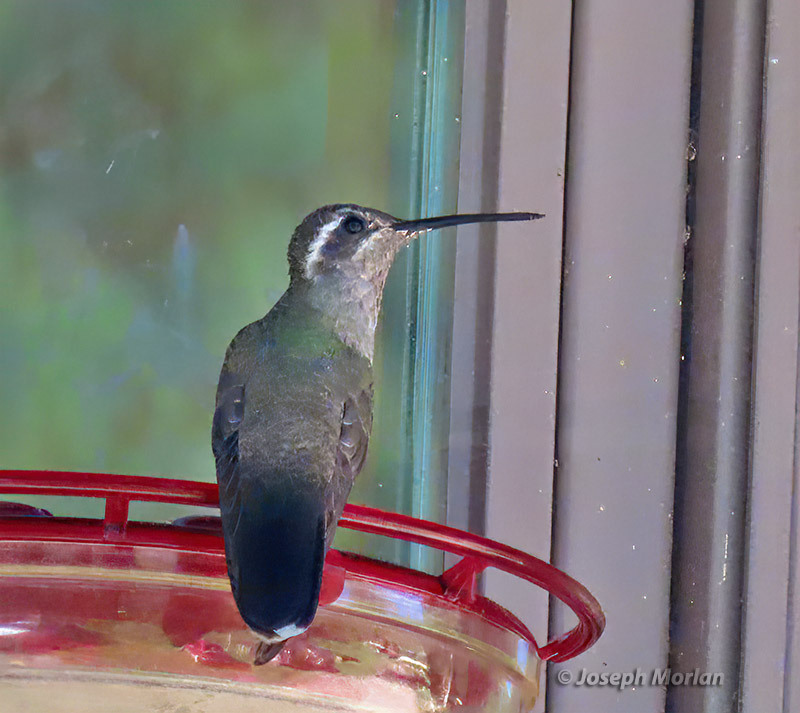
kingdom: Animalia
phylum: Chordata
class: Aves
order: Apodiformes
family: Trochilidae
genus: Lampornis
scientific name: Lampornis clemenciae
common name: Blue-throated mountaingem
